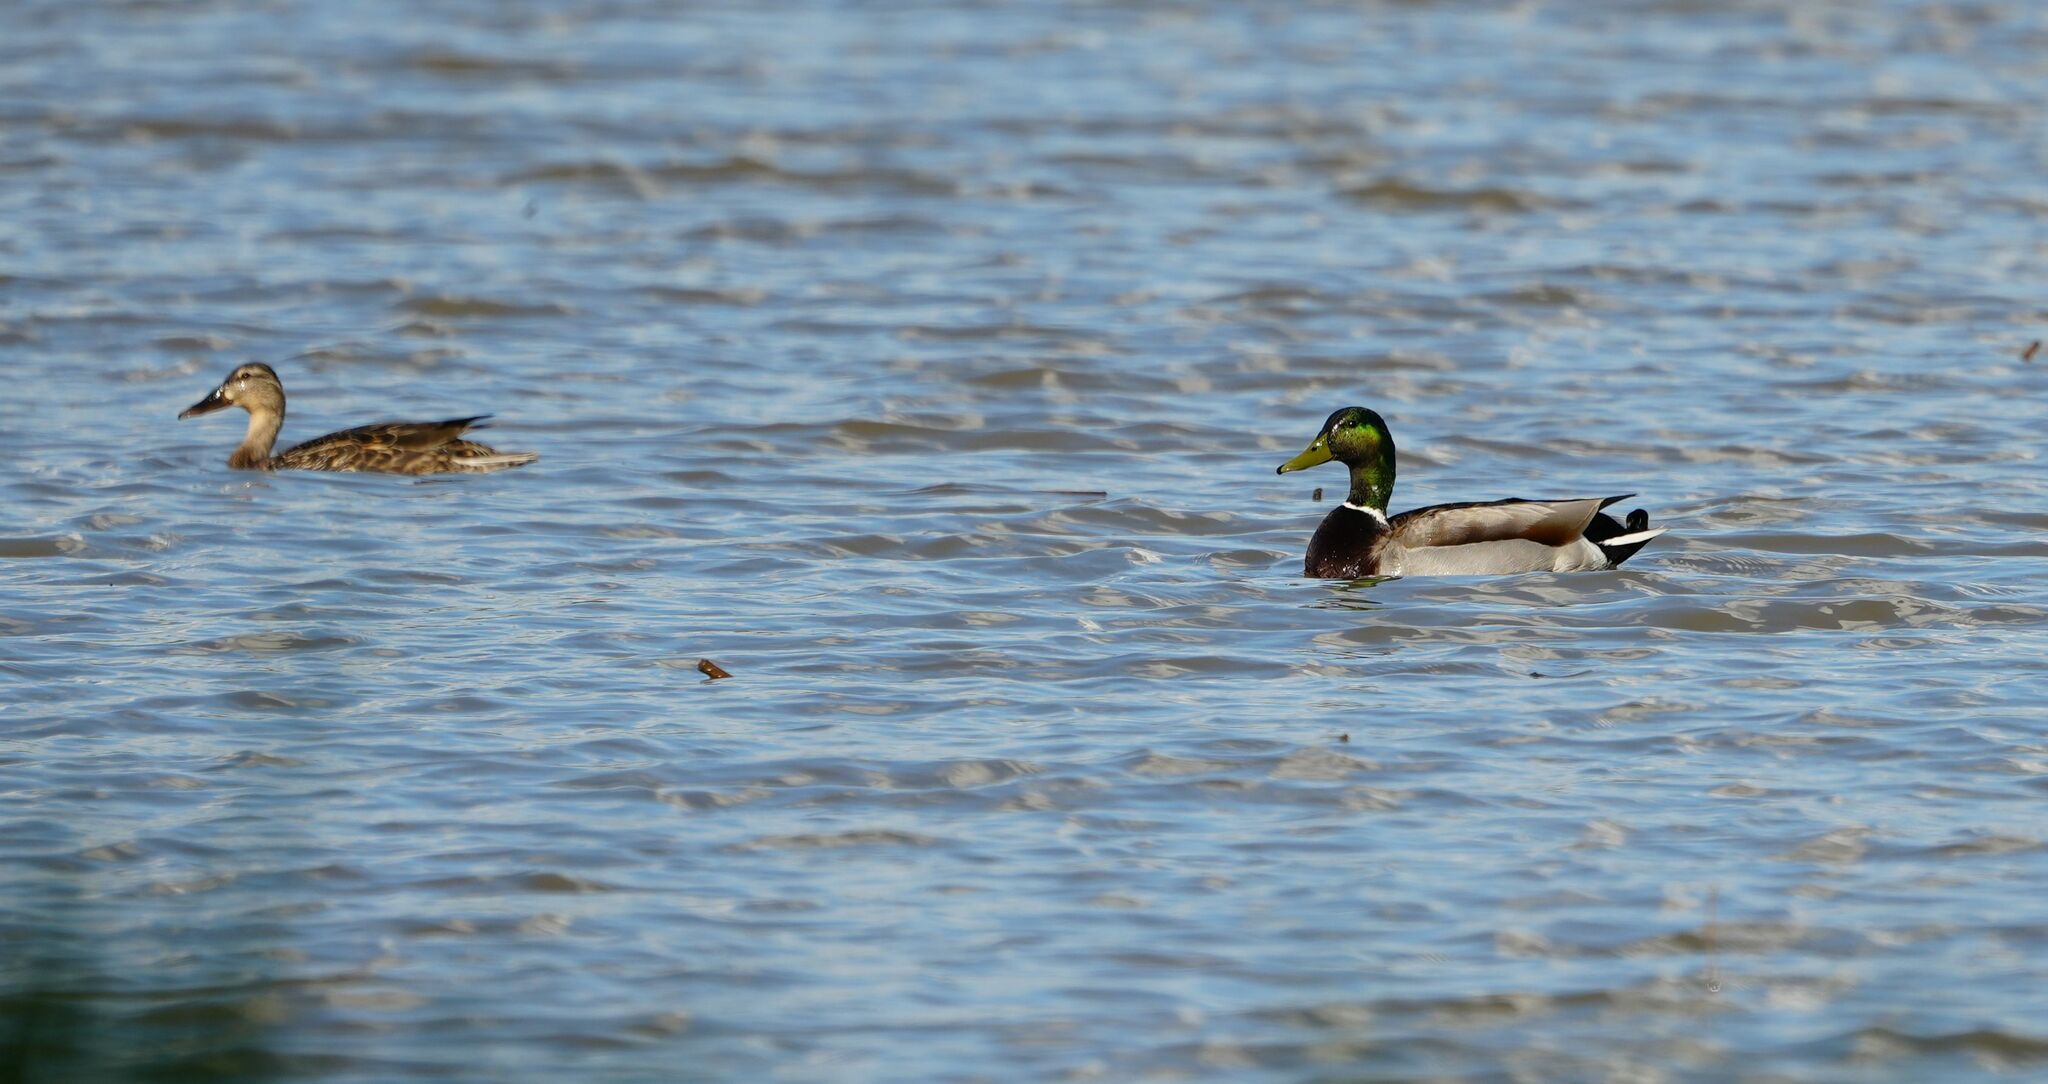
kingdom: Animalia
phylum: Chordata
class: Aves
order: Anseriformes
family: Anatidae
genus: Anas
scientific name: Anas platyrhynchos
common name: Mallard
